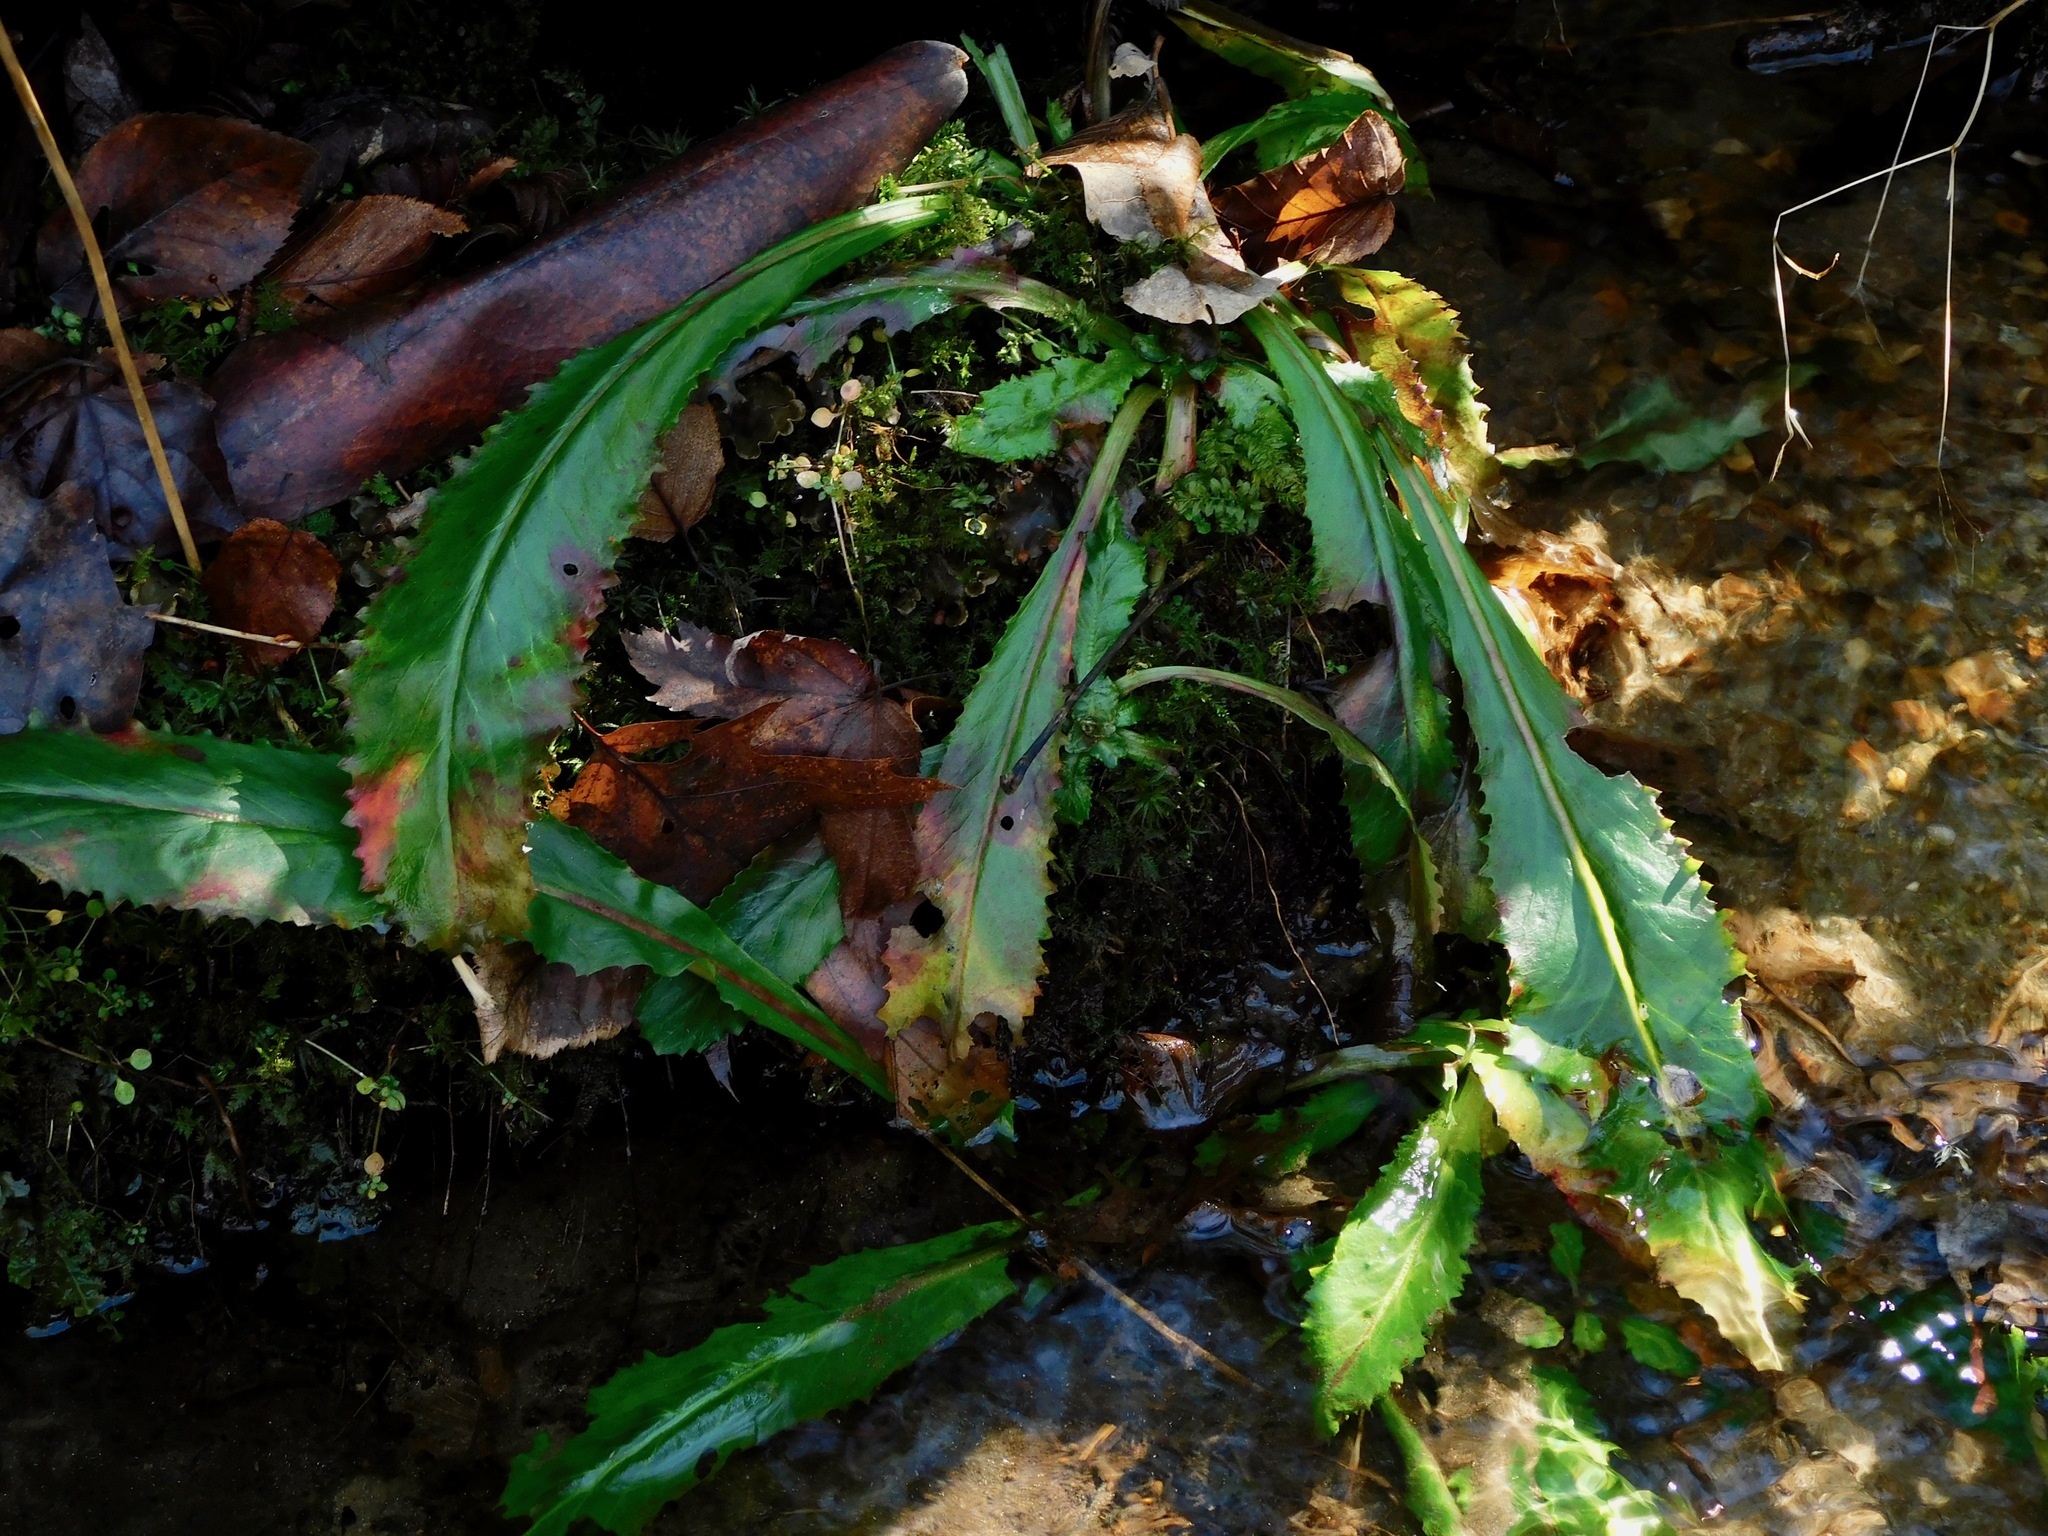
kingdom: Plantae
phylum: Tracheophyta
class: Magnoliopsida
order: Saxifragales
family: Saxifragaceae
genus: Micranthes
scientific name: Micranthes micranthidifolia
